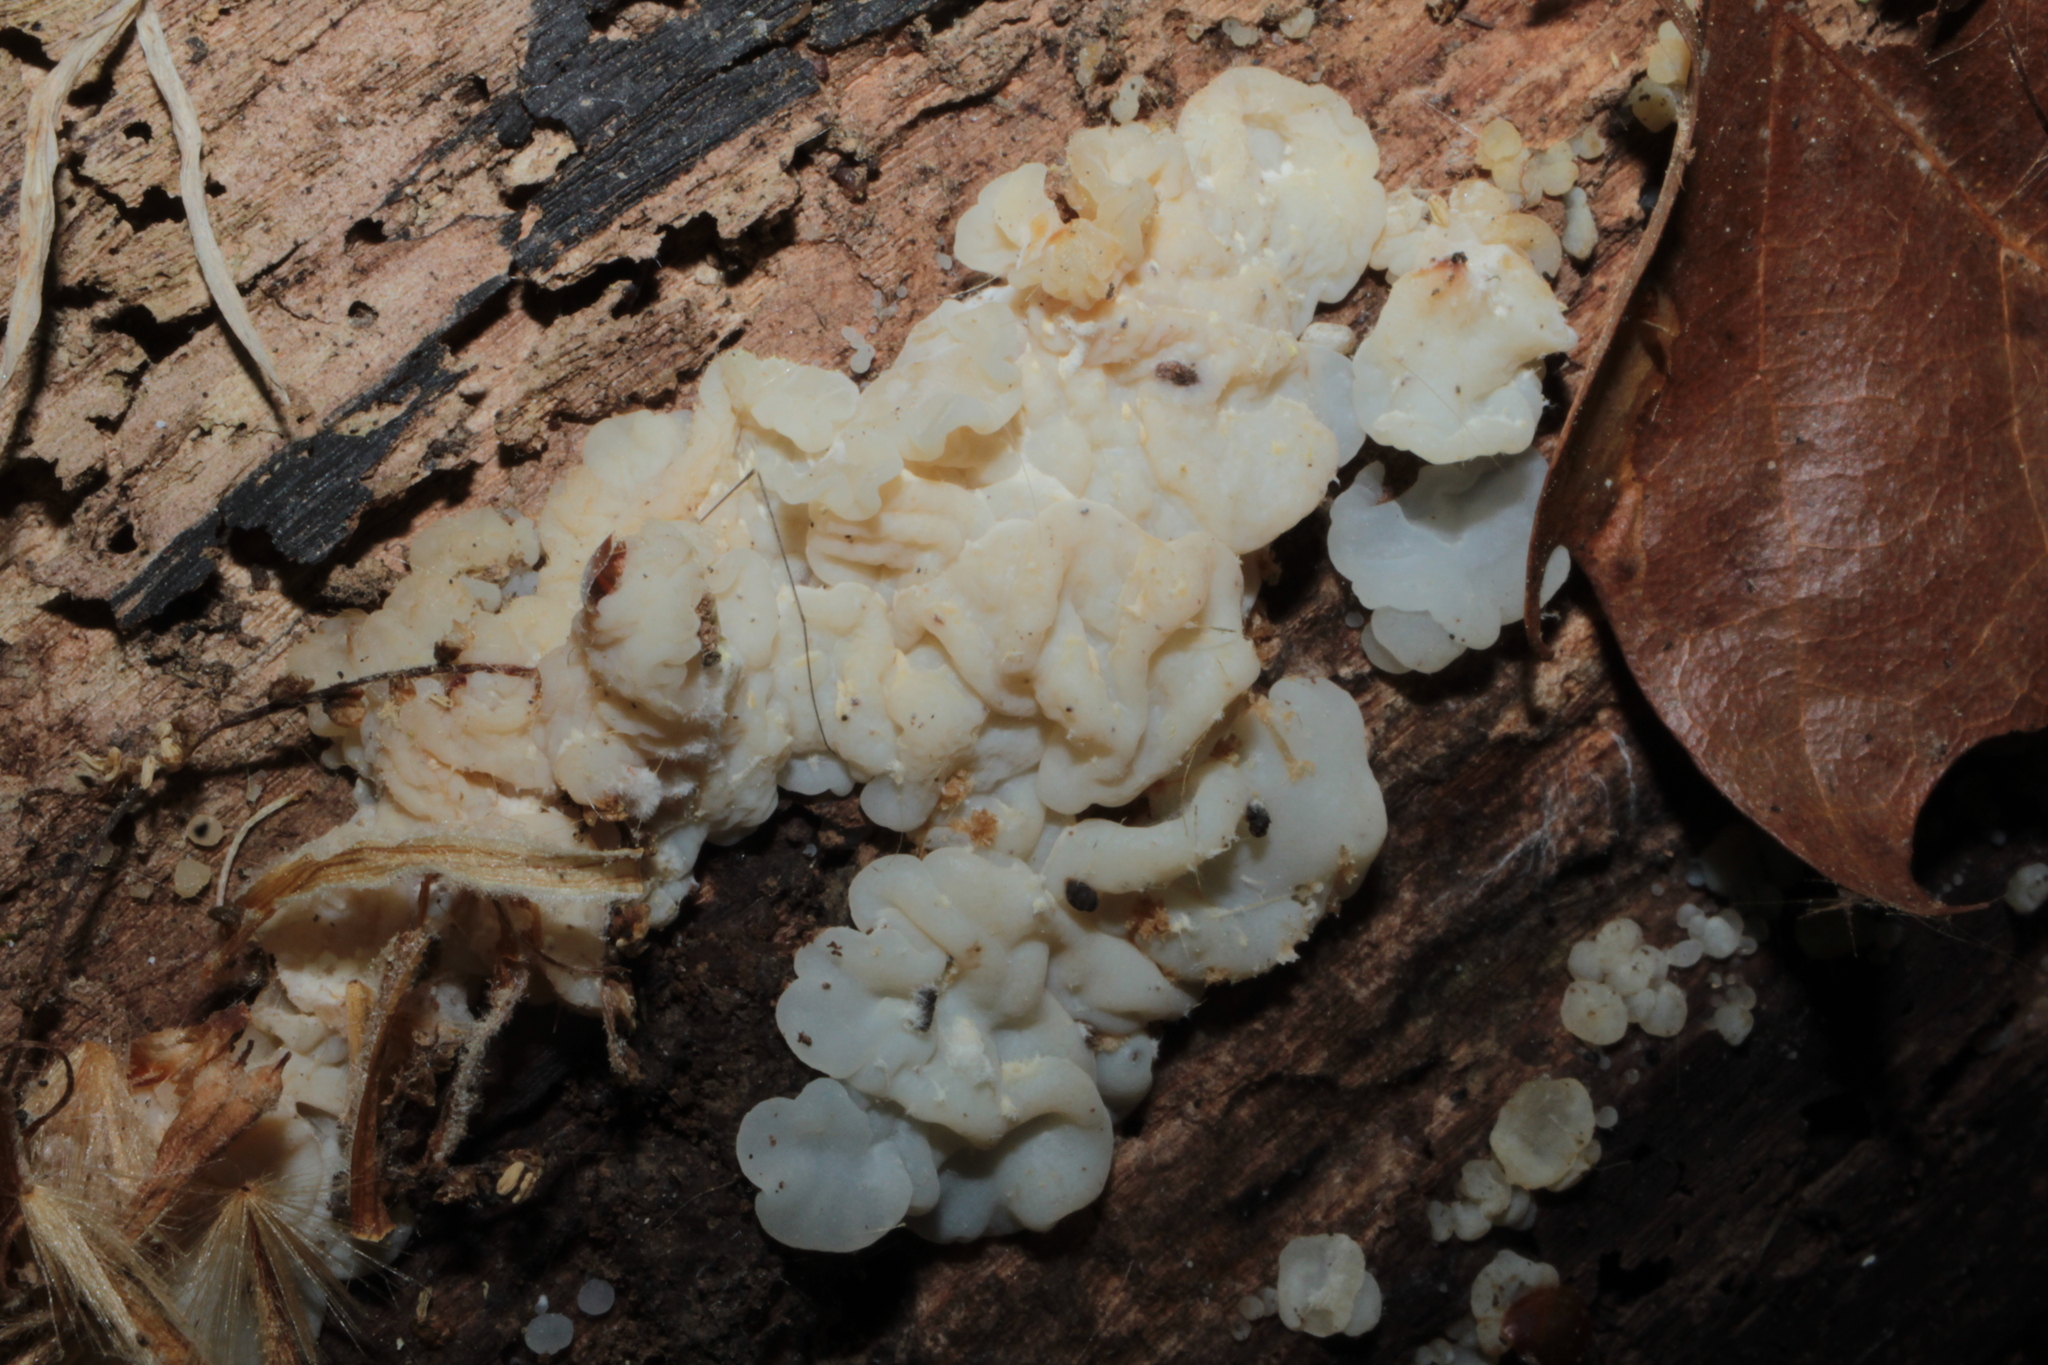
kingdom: Fungi
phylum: Basidiomycota
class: Agaricomycetes
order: Auriculariales
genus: Ductifera
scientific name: Ductifera pululahuana
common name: White jelly fungus
